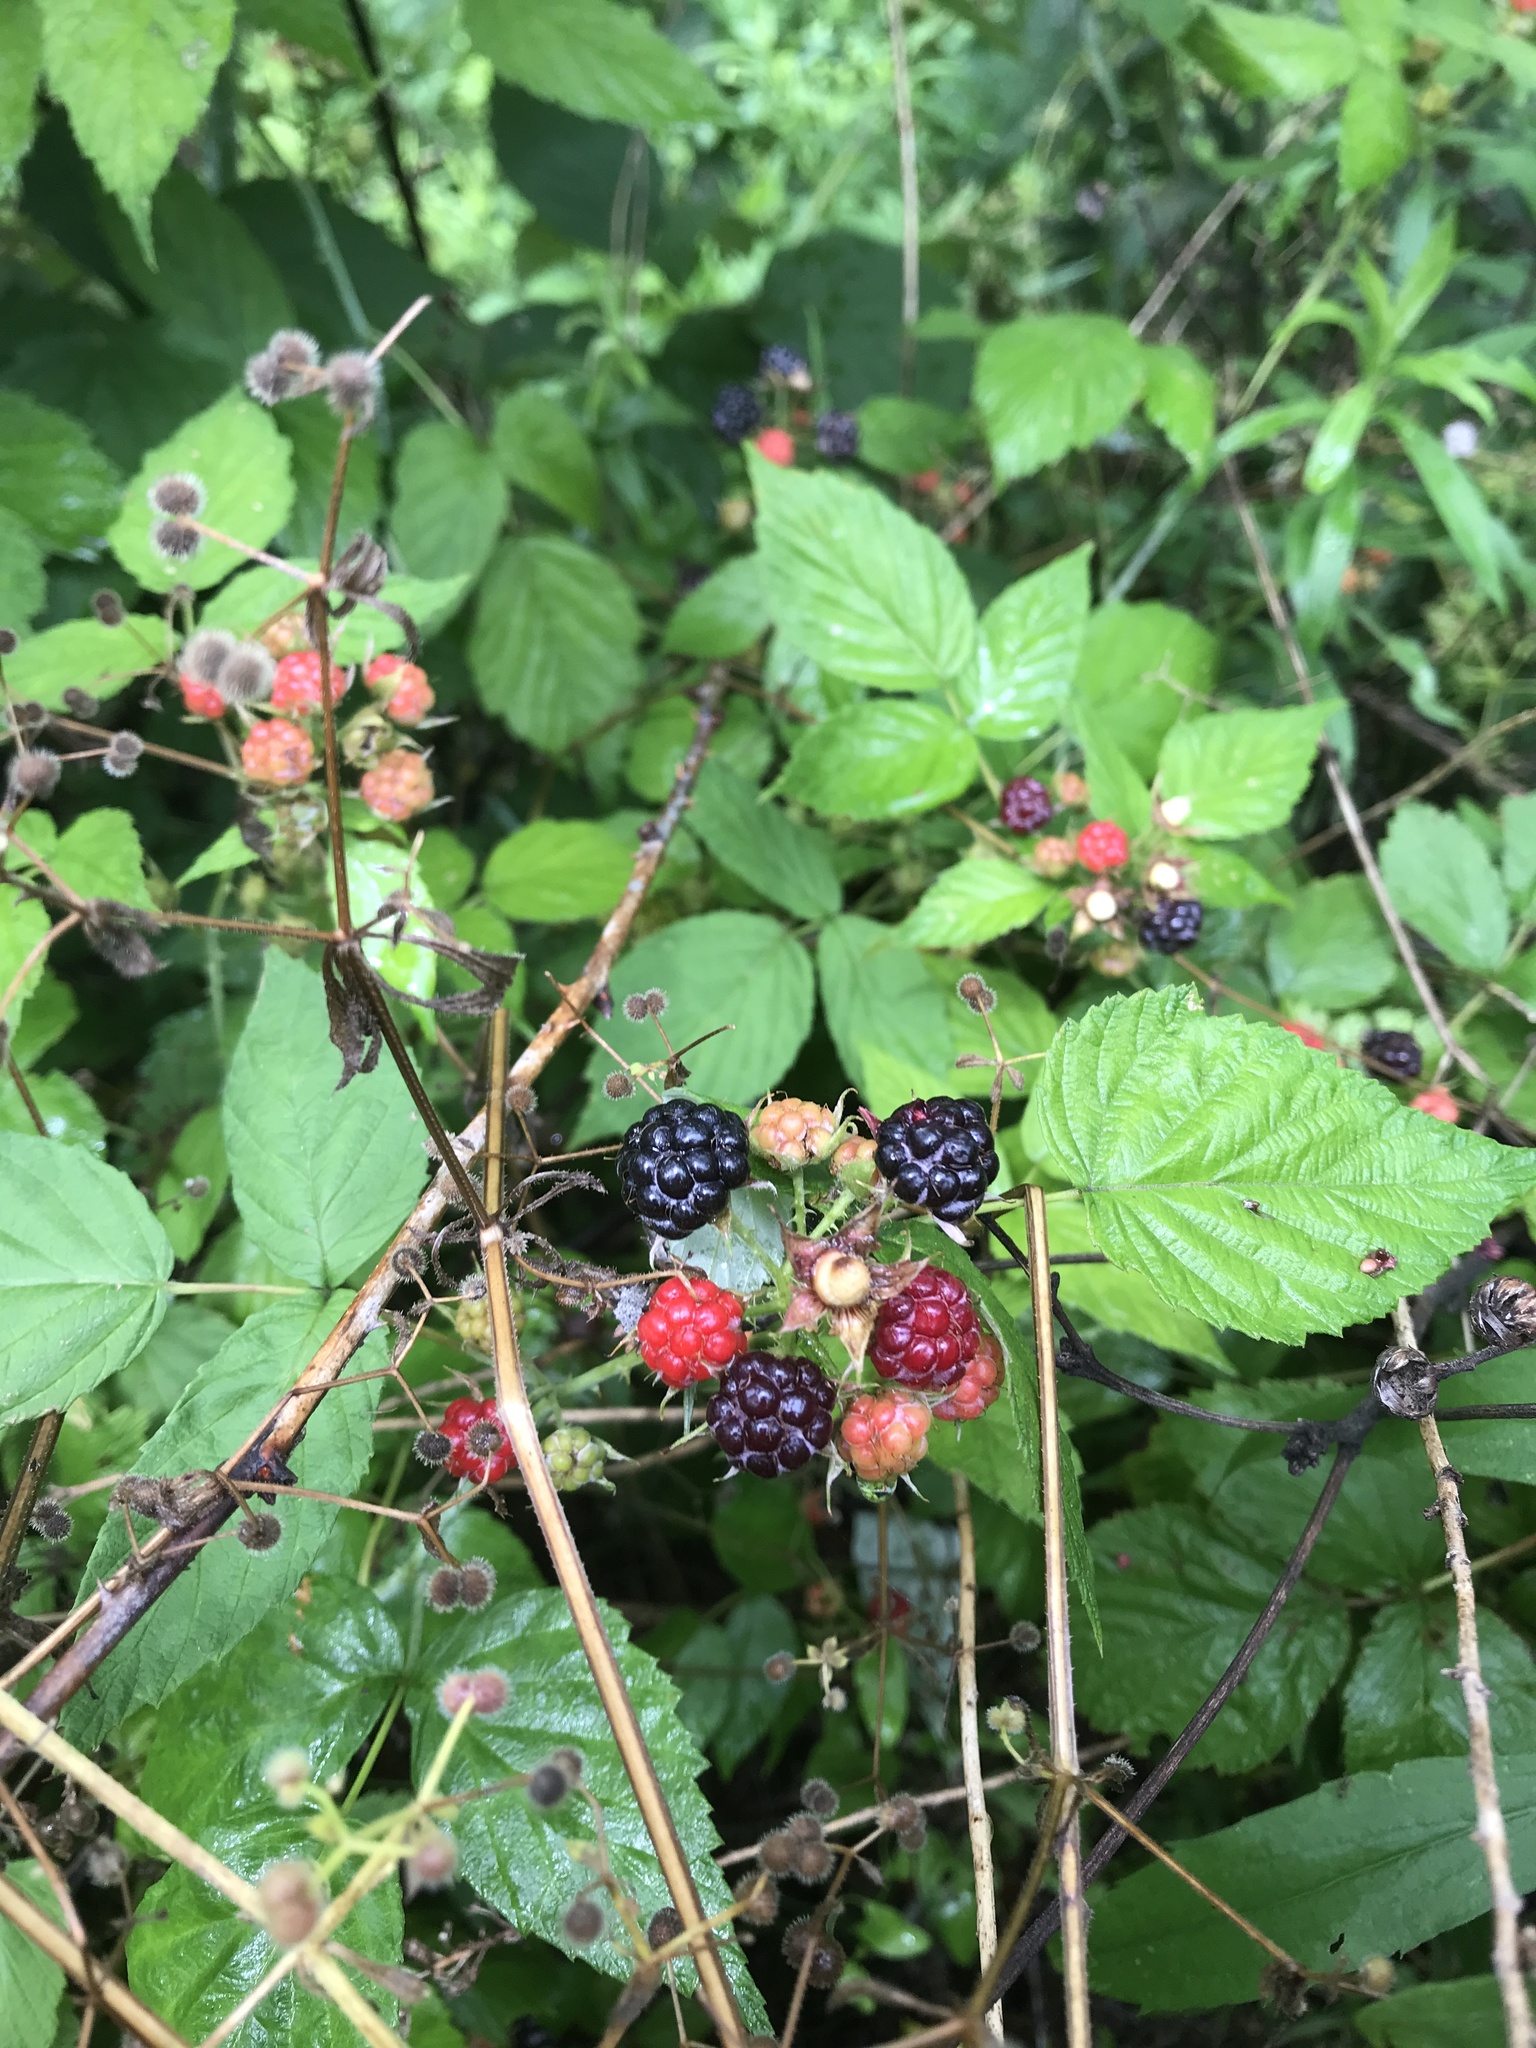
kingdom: Plantae
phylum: Tracheophyta
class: Magnoliopsida
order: Rosales
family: Rosaceae
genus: Rubus
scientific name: Rubus occidentalis
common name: Black raspberry
